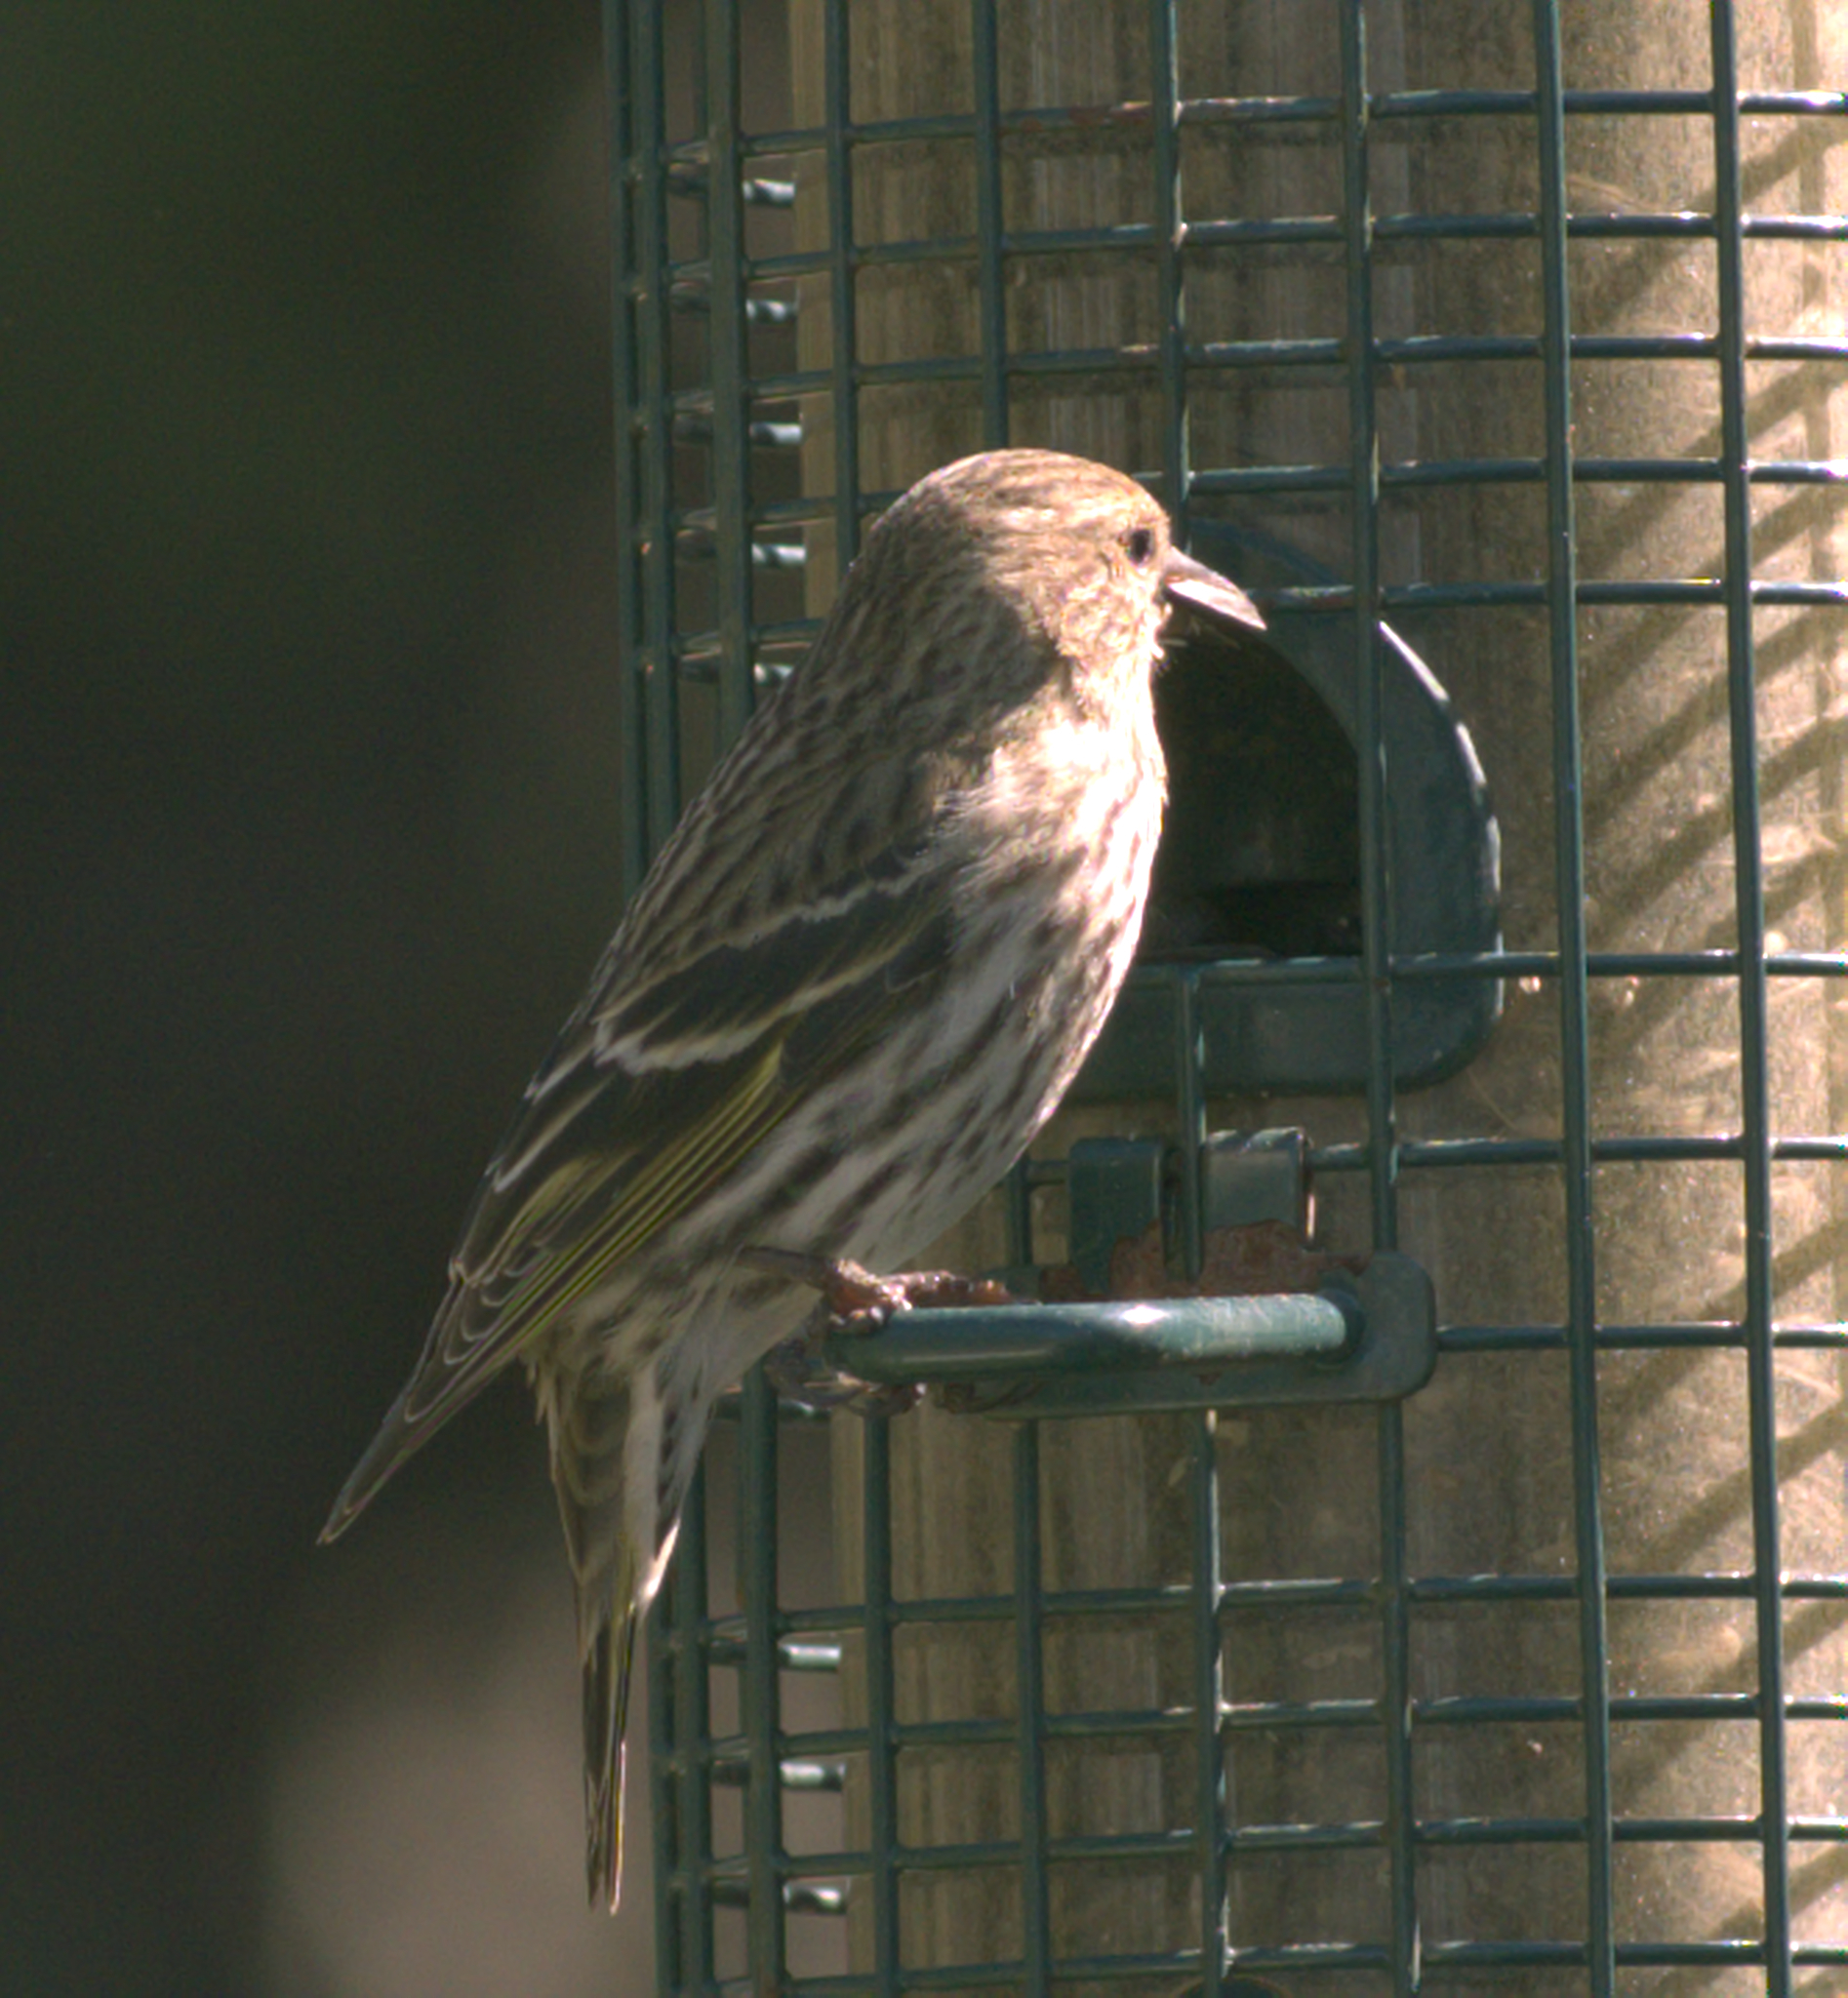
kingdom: Animalia
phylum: Chordata
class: Aves
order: Passeriformes
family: Fringillidae
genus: Spinus
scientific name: Spinus pinus
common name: Pine siskin
